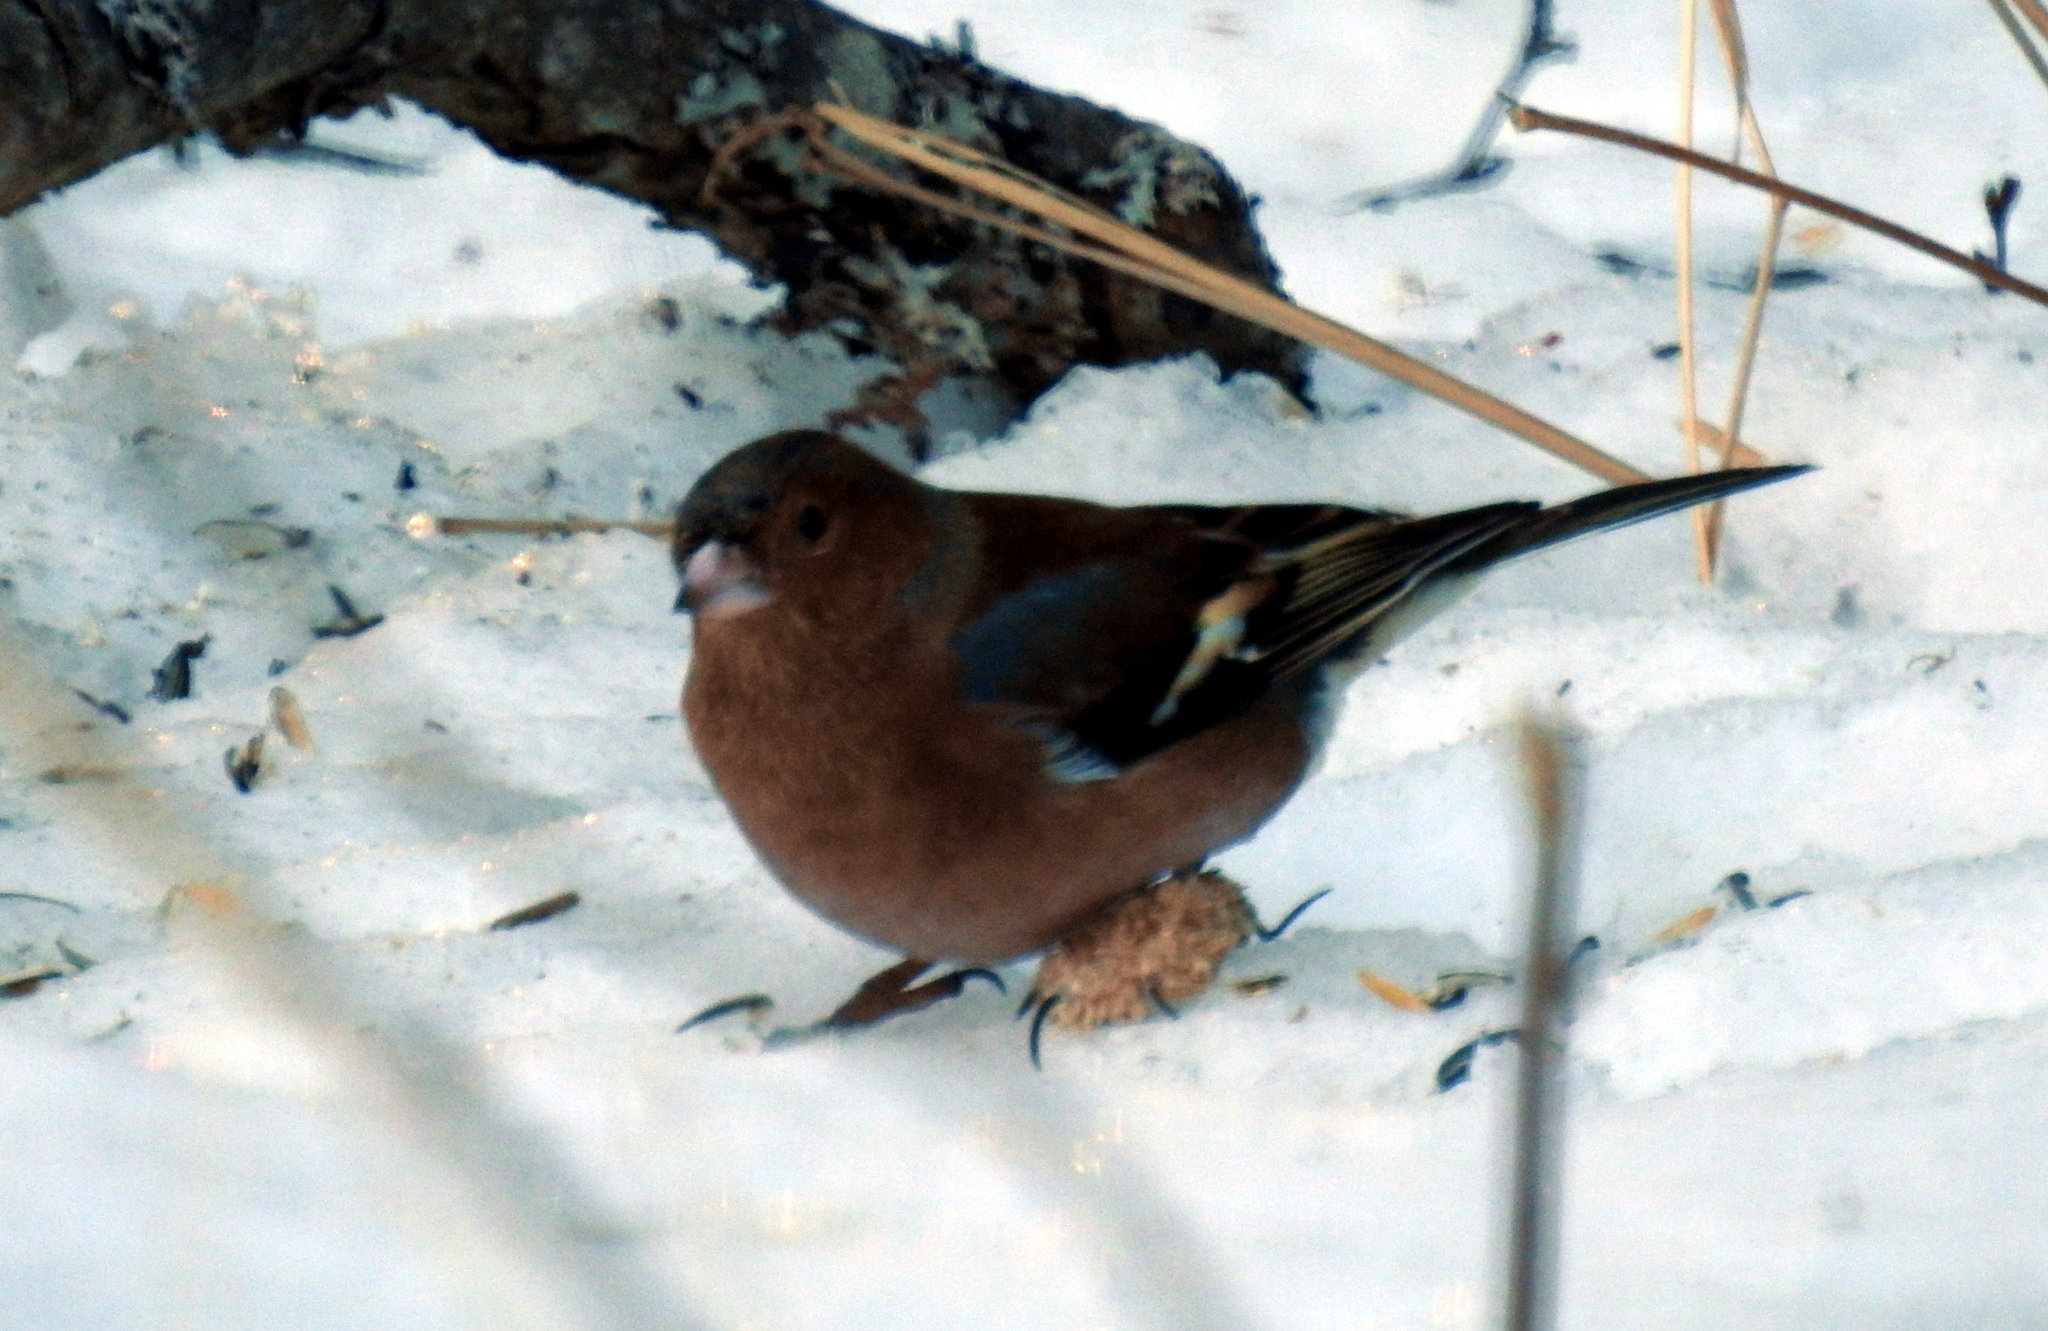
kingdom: Viruses
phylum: Cossaviricota
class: Papovaviricetes
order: Zurhausenvirales
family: Papillomaviridae
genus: Etapapillomavirus
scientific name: Etapapillomavirus
